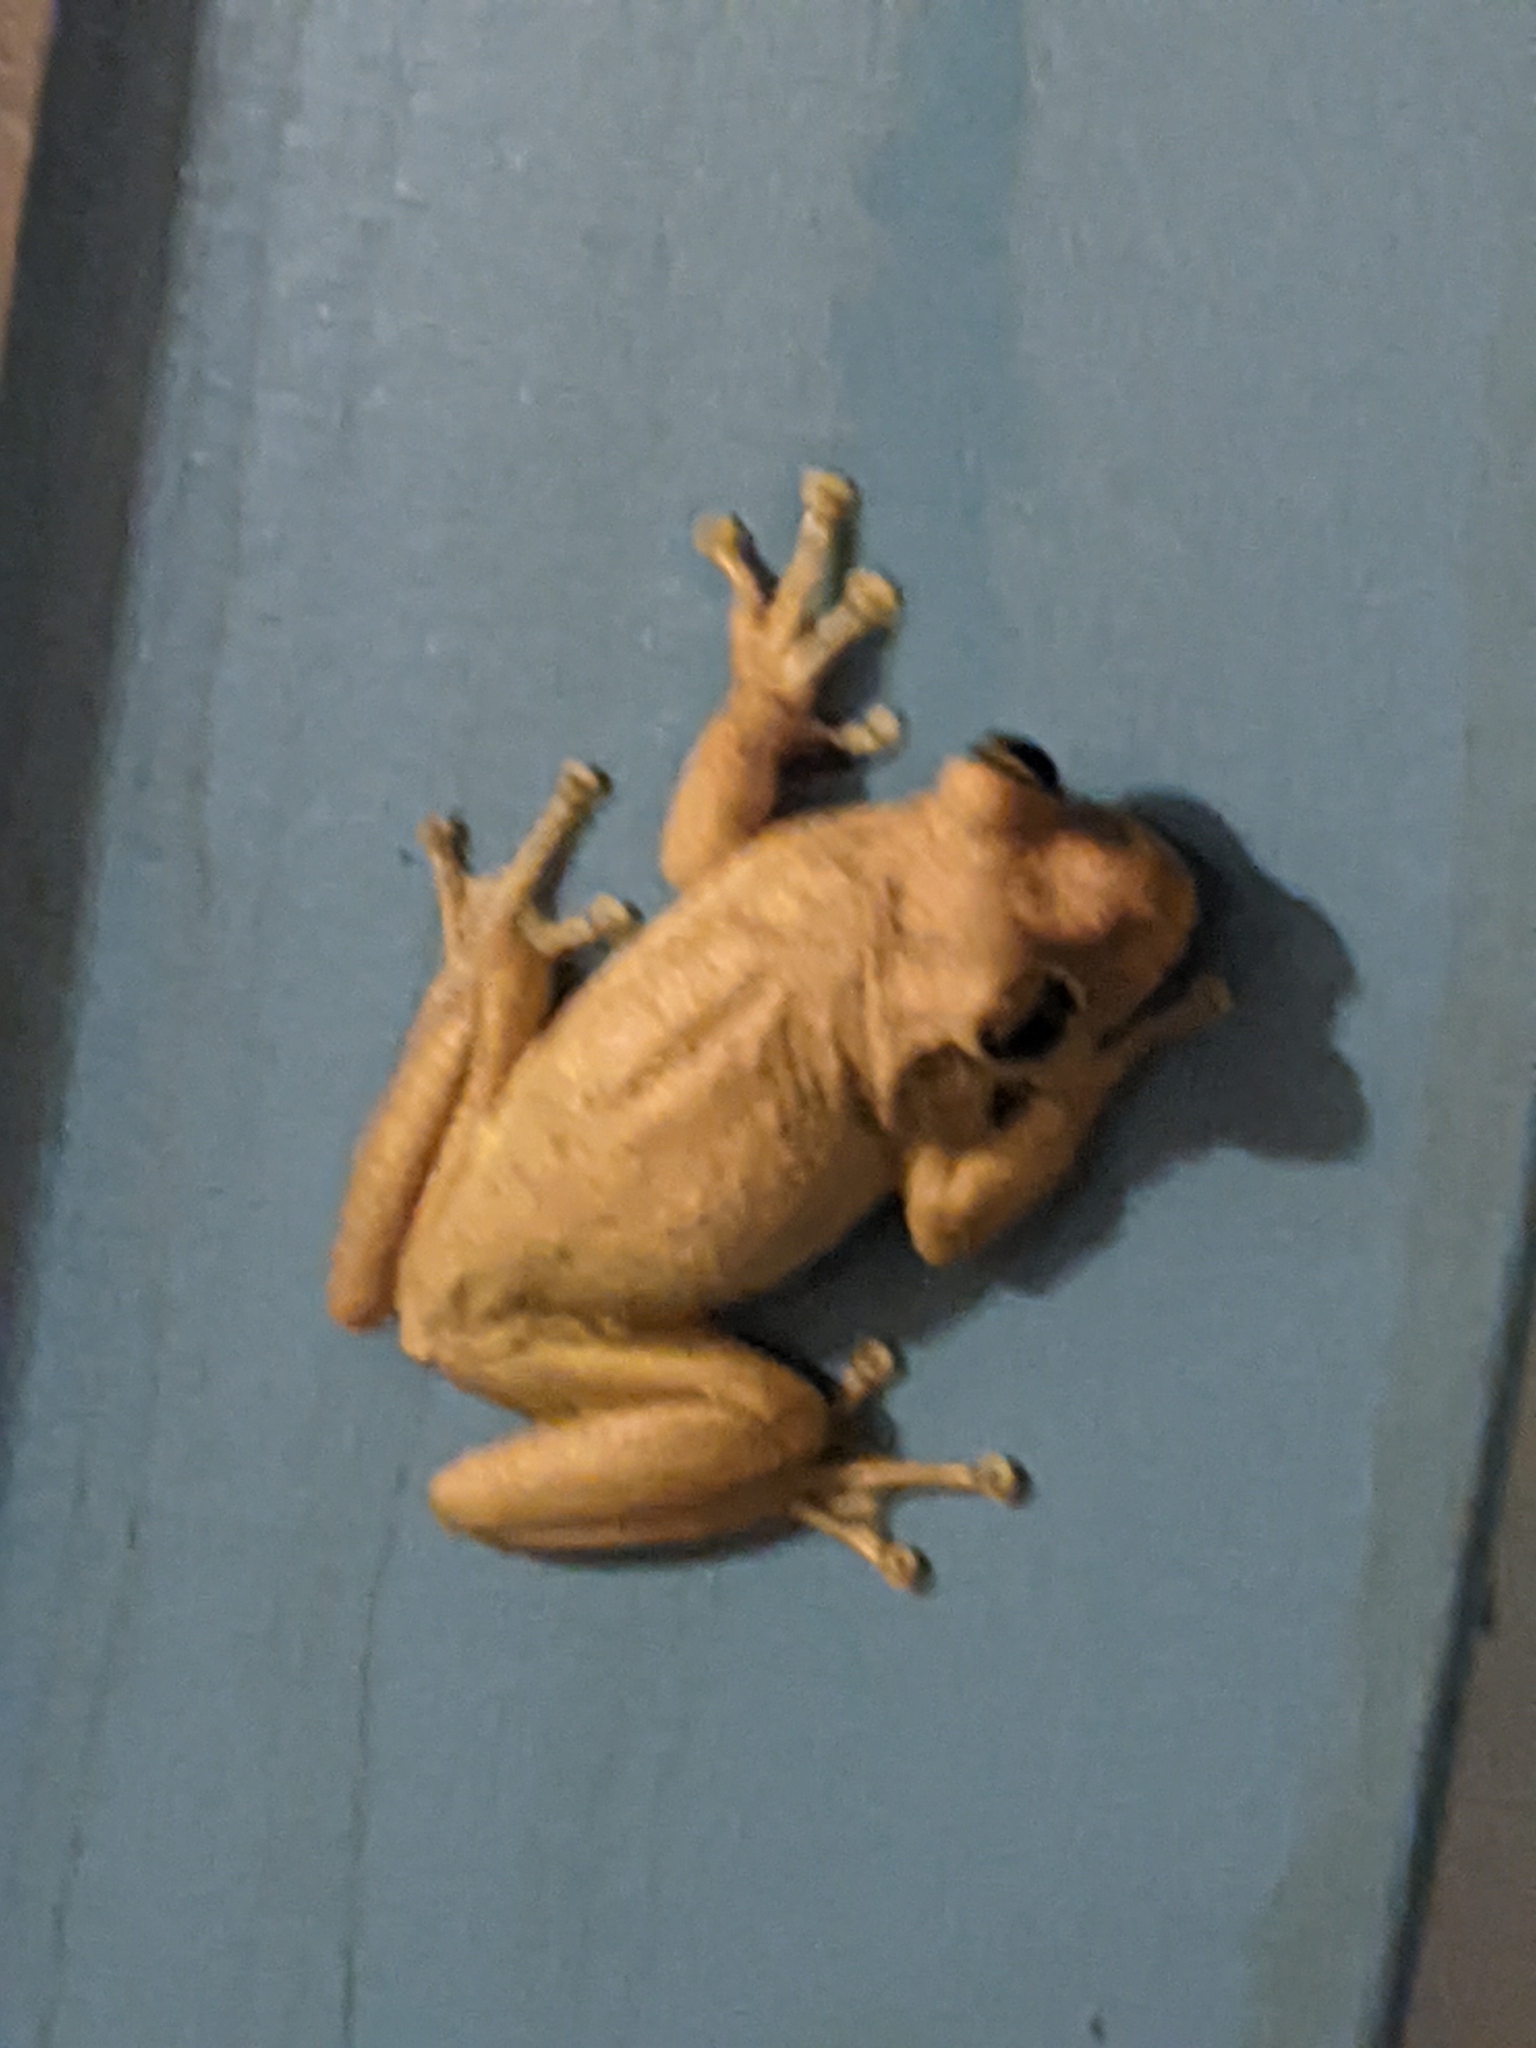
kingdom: Animalia
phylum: Chordata
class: Amphibia
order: Anura
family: Hylidae
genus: Osteopilus
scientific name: Osteopilus septentrionalis
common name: Cuban treefrog
